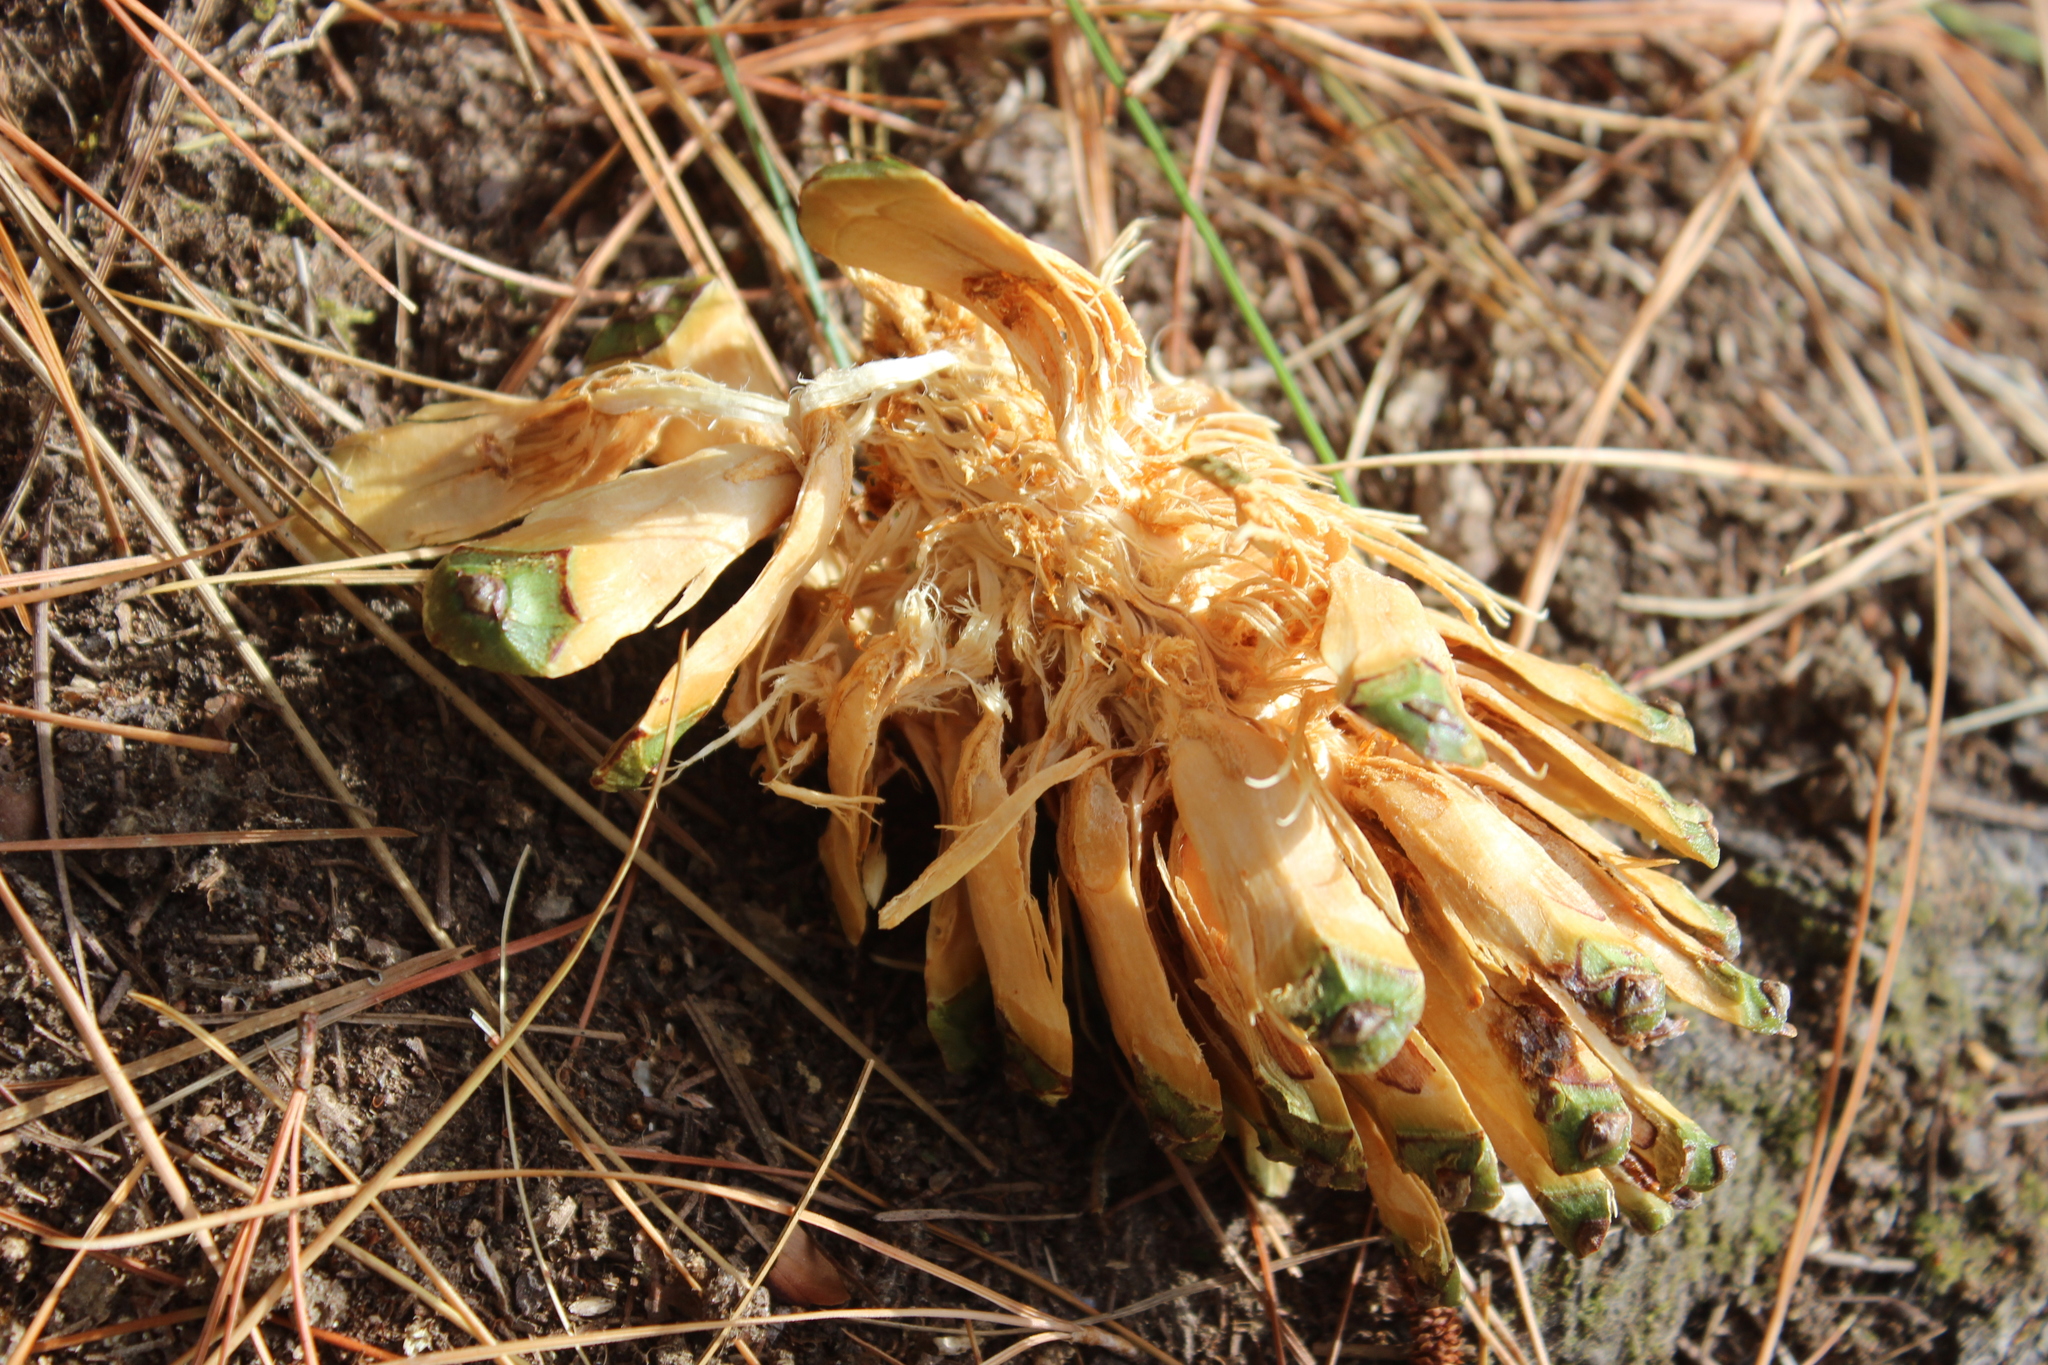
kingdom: Animalia
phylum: Chordata
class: Aves
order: Psittaciformes
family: Psittacidae
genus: Nestor
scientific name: Nestor meridionalis
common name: New zealand kaka
